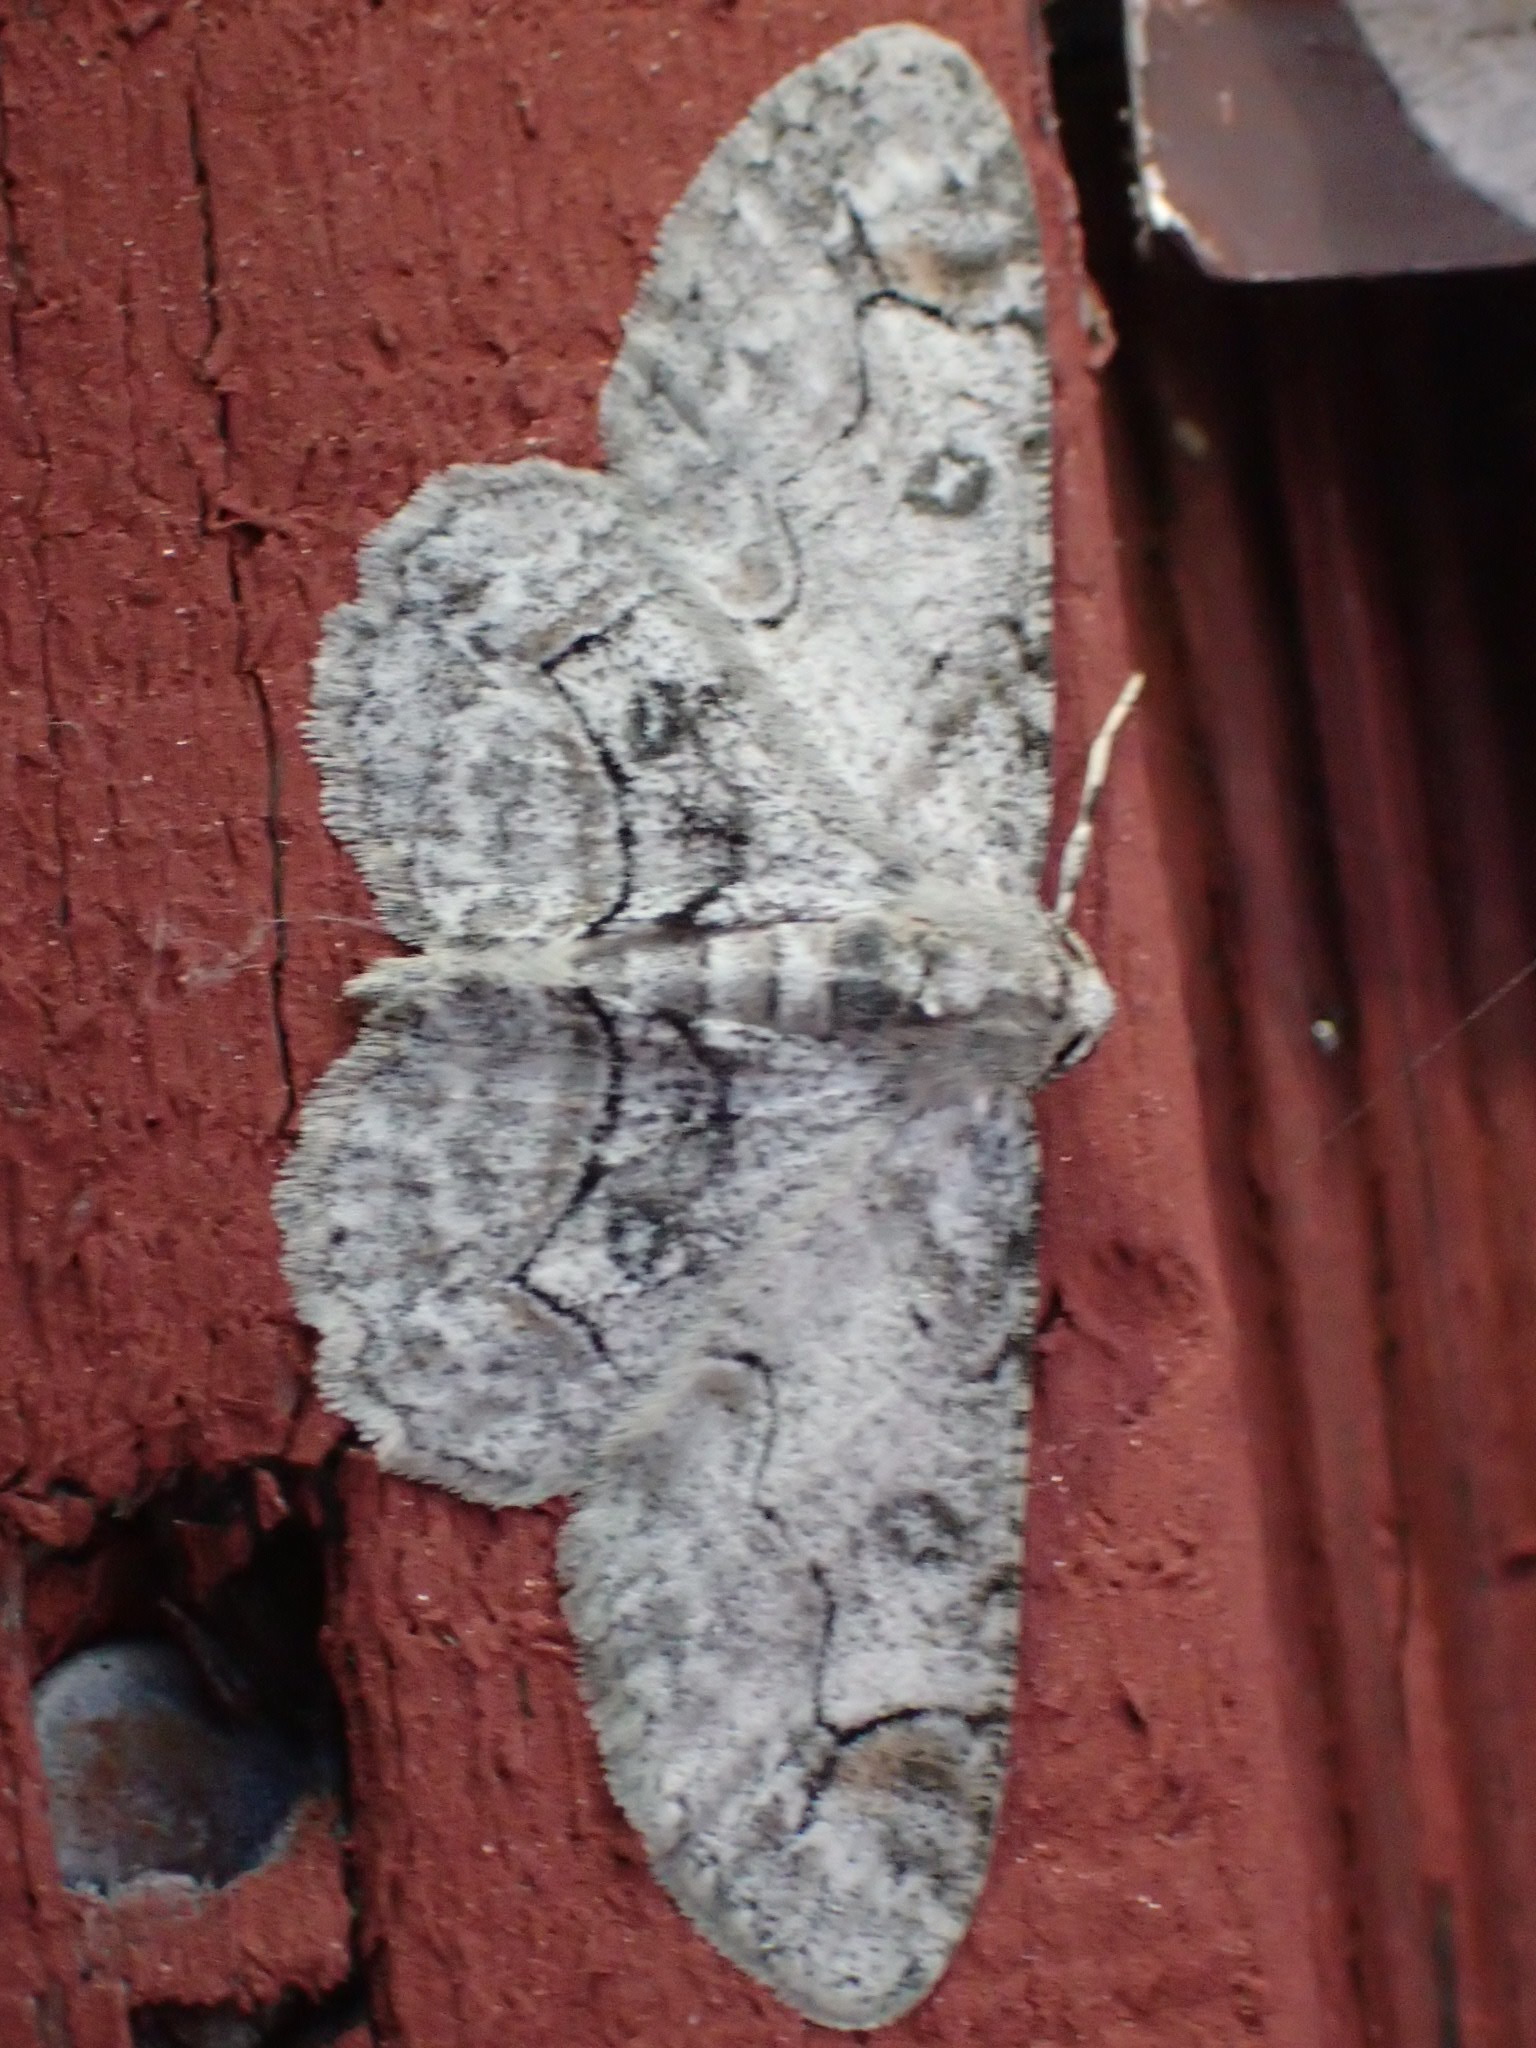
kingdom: Animalia
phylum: Arthropoda
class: Insecta
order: Lepidoptera
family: Geometridae
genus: Iridopsis
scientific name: Iridopsis larvaria
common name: Bent-line gray
